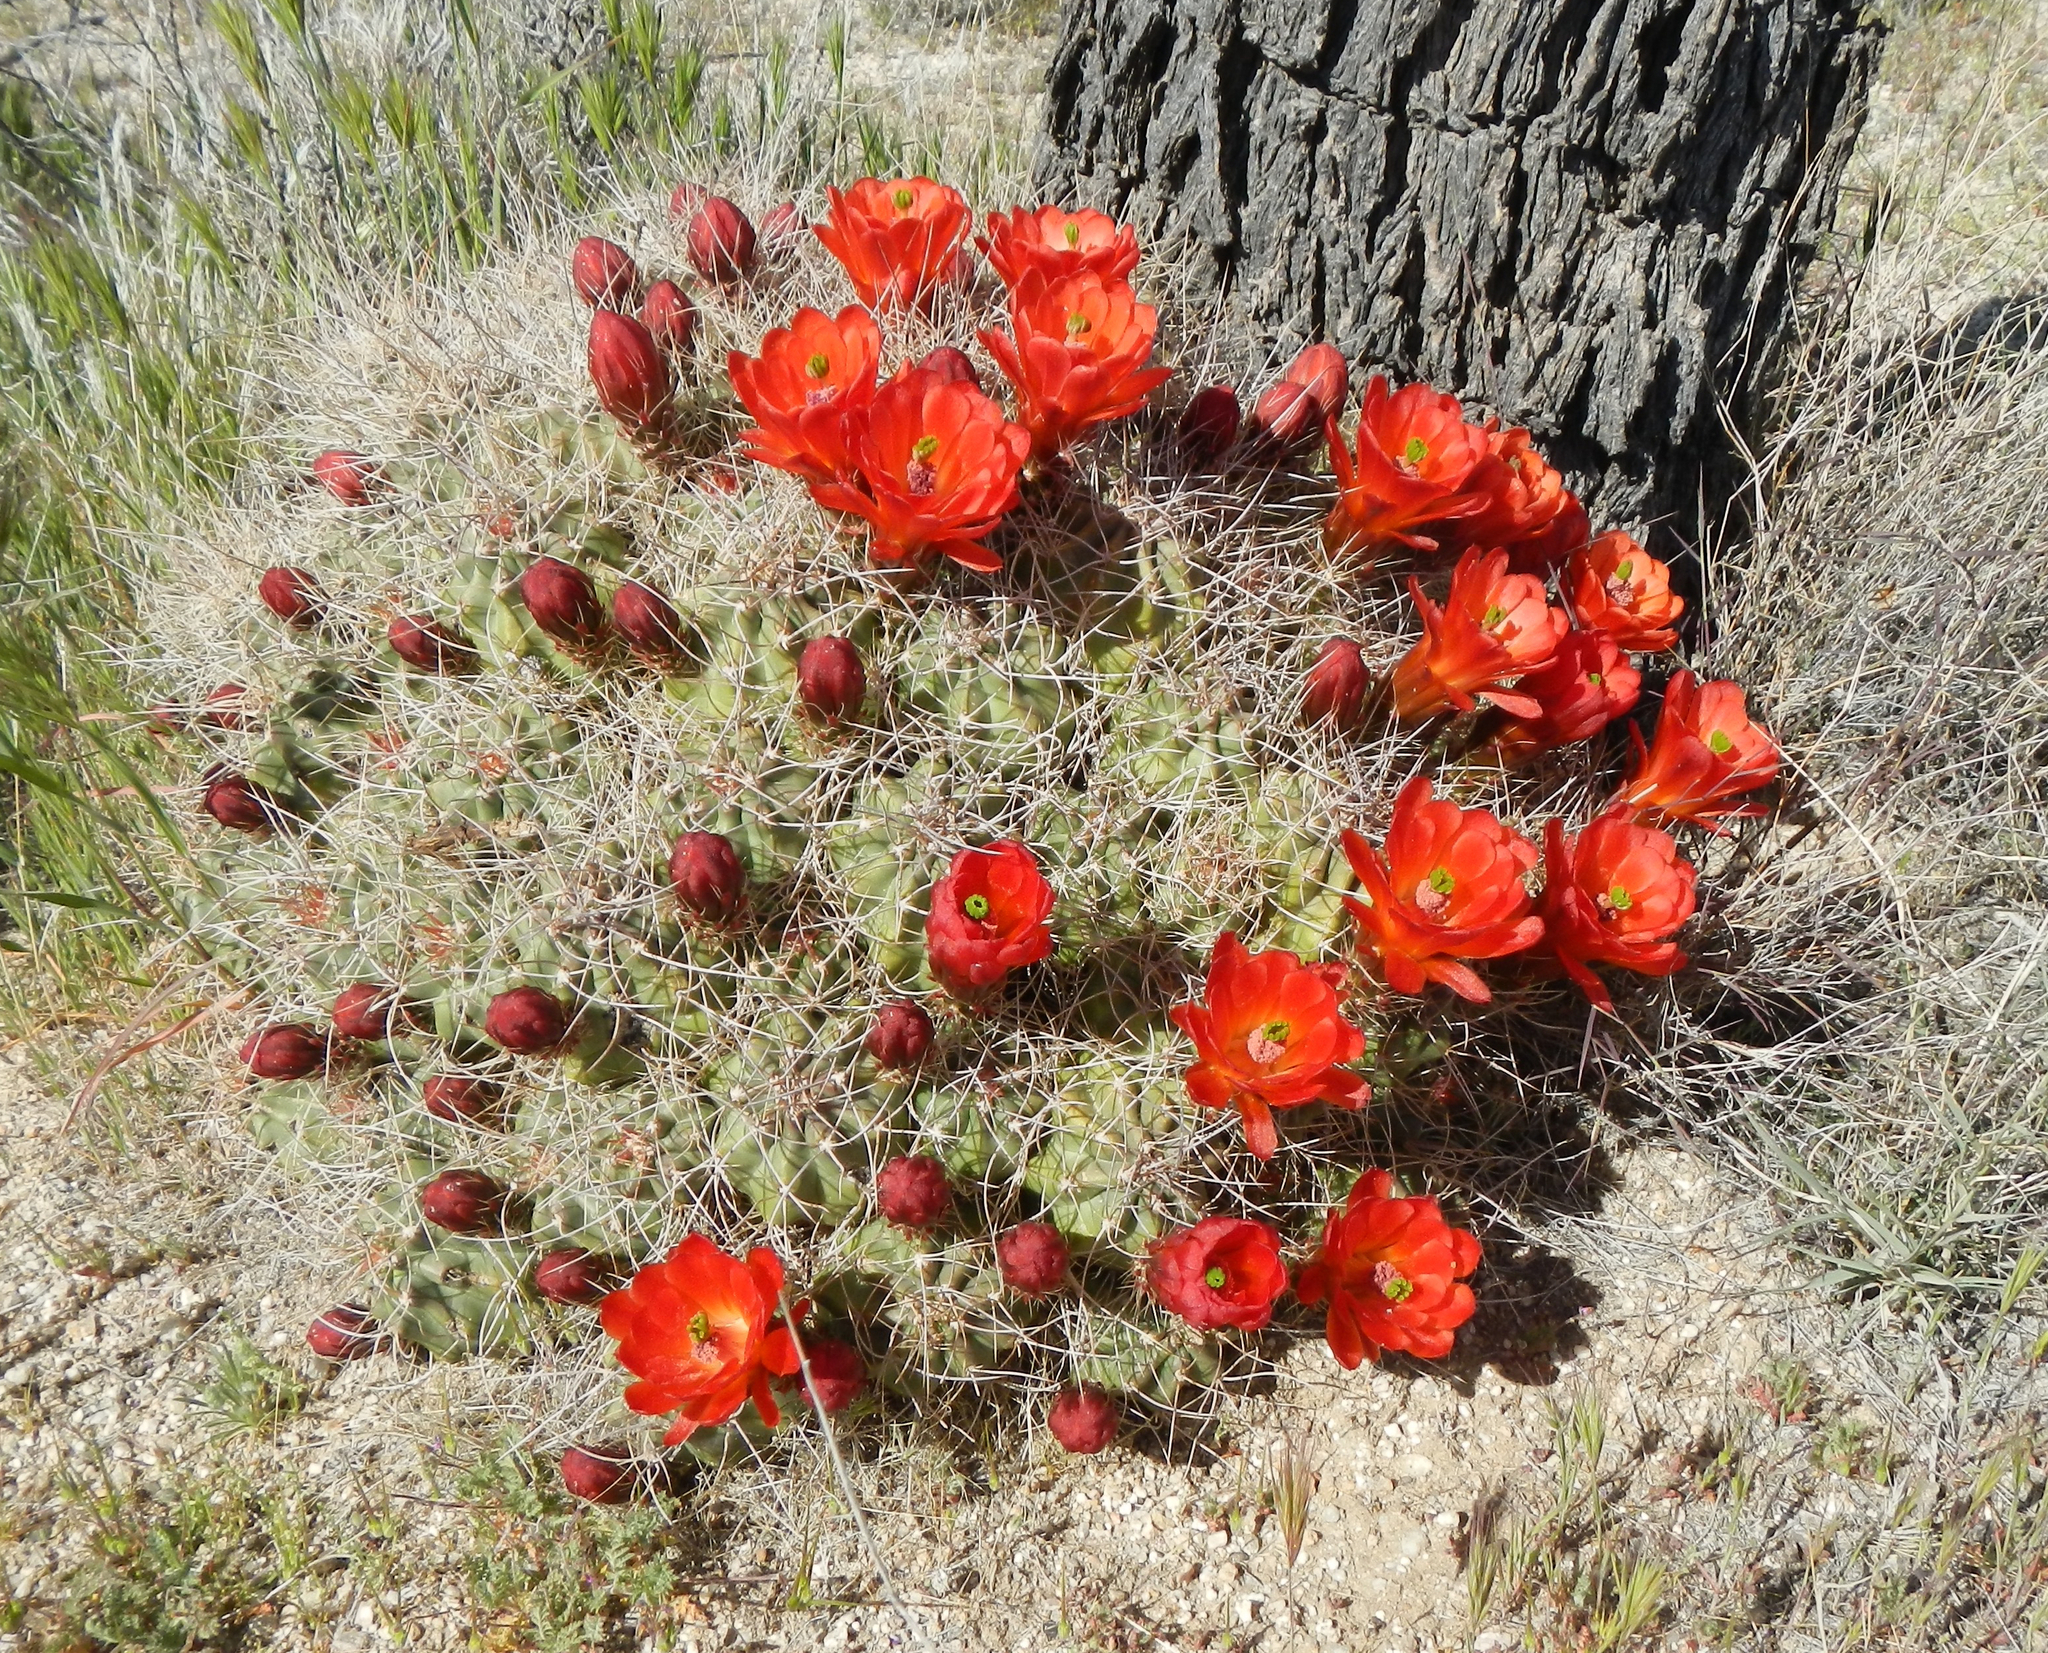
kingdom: Plantae
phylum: Tracheophyta
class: Magnoliopsida
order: Caryophyllales
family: Cactaceae
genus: Echinocereus
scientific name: Echinocereus triglochidiatus
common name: Claretcup hedgehog
